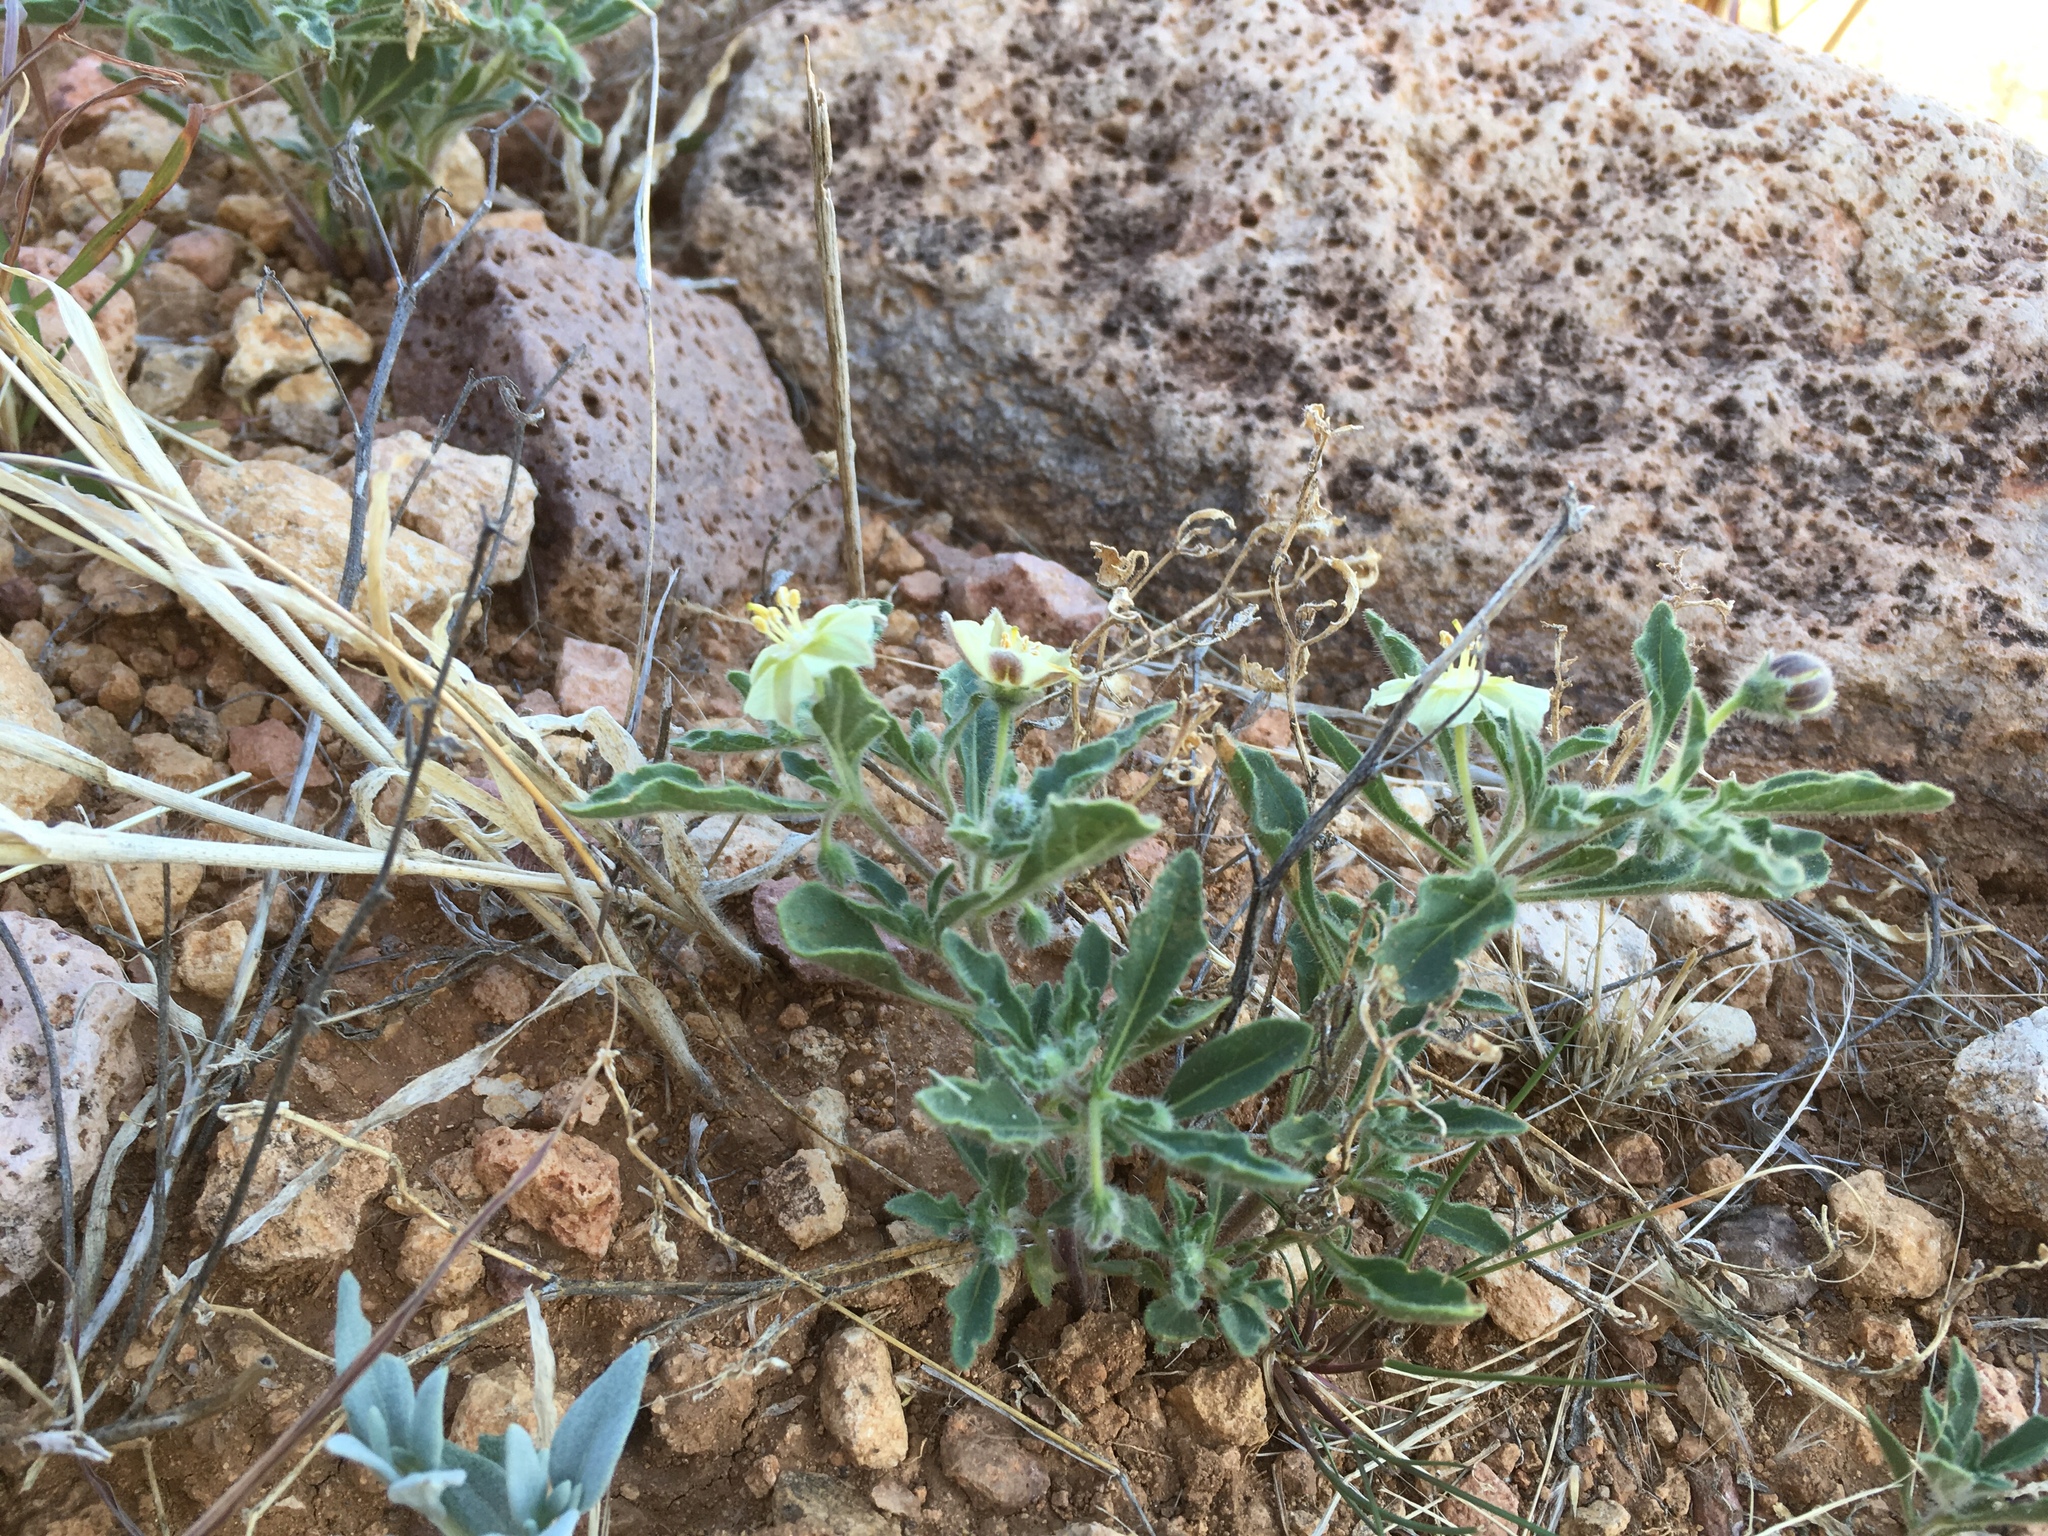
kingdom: Plantae
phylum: Tracheophyta
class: Magnoliopsida
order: Solanales
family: Solanaceae
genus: Chamaesaracha
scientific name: Chamaesaracha sordida
